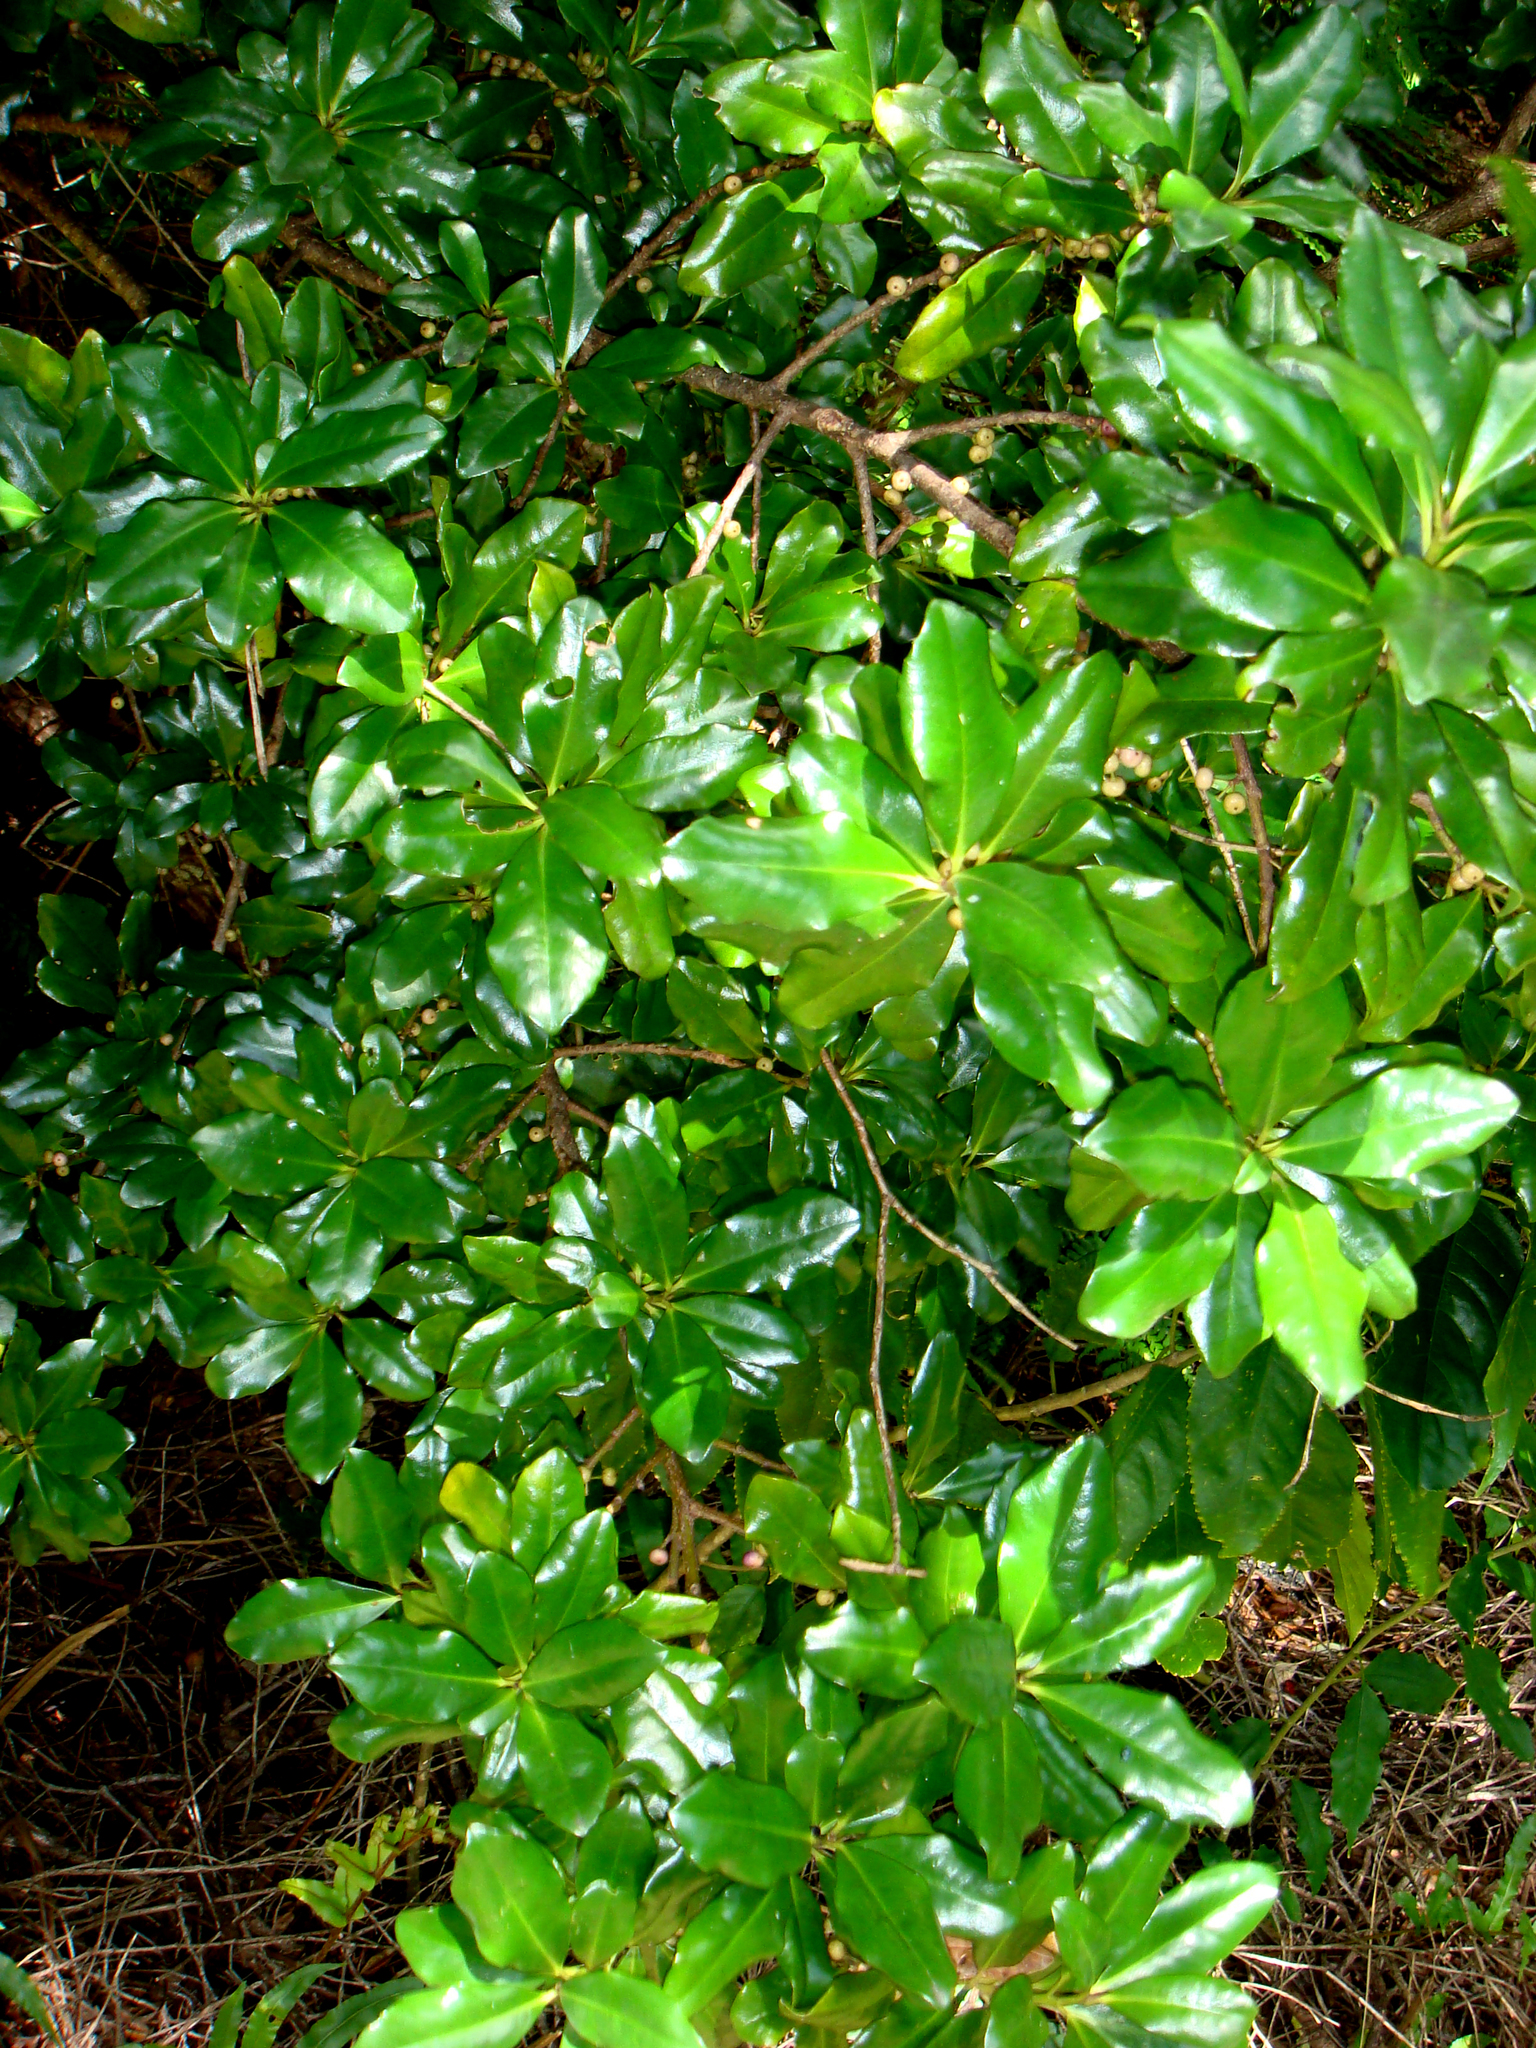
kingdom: Plantae
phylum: Tracheophyta
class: Magnoliopsida
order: Ericales
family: Primulaceae
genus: Myrsine
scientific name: Myrsine kermadecensis
